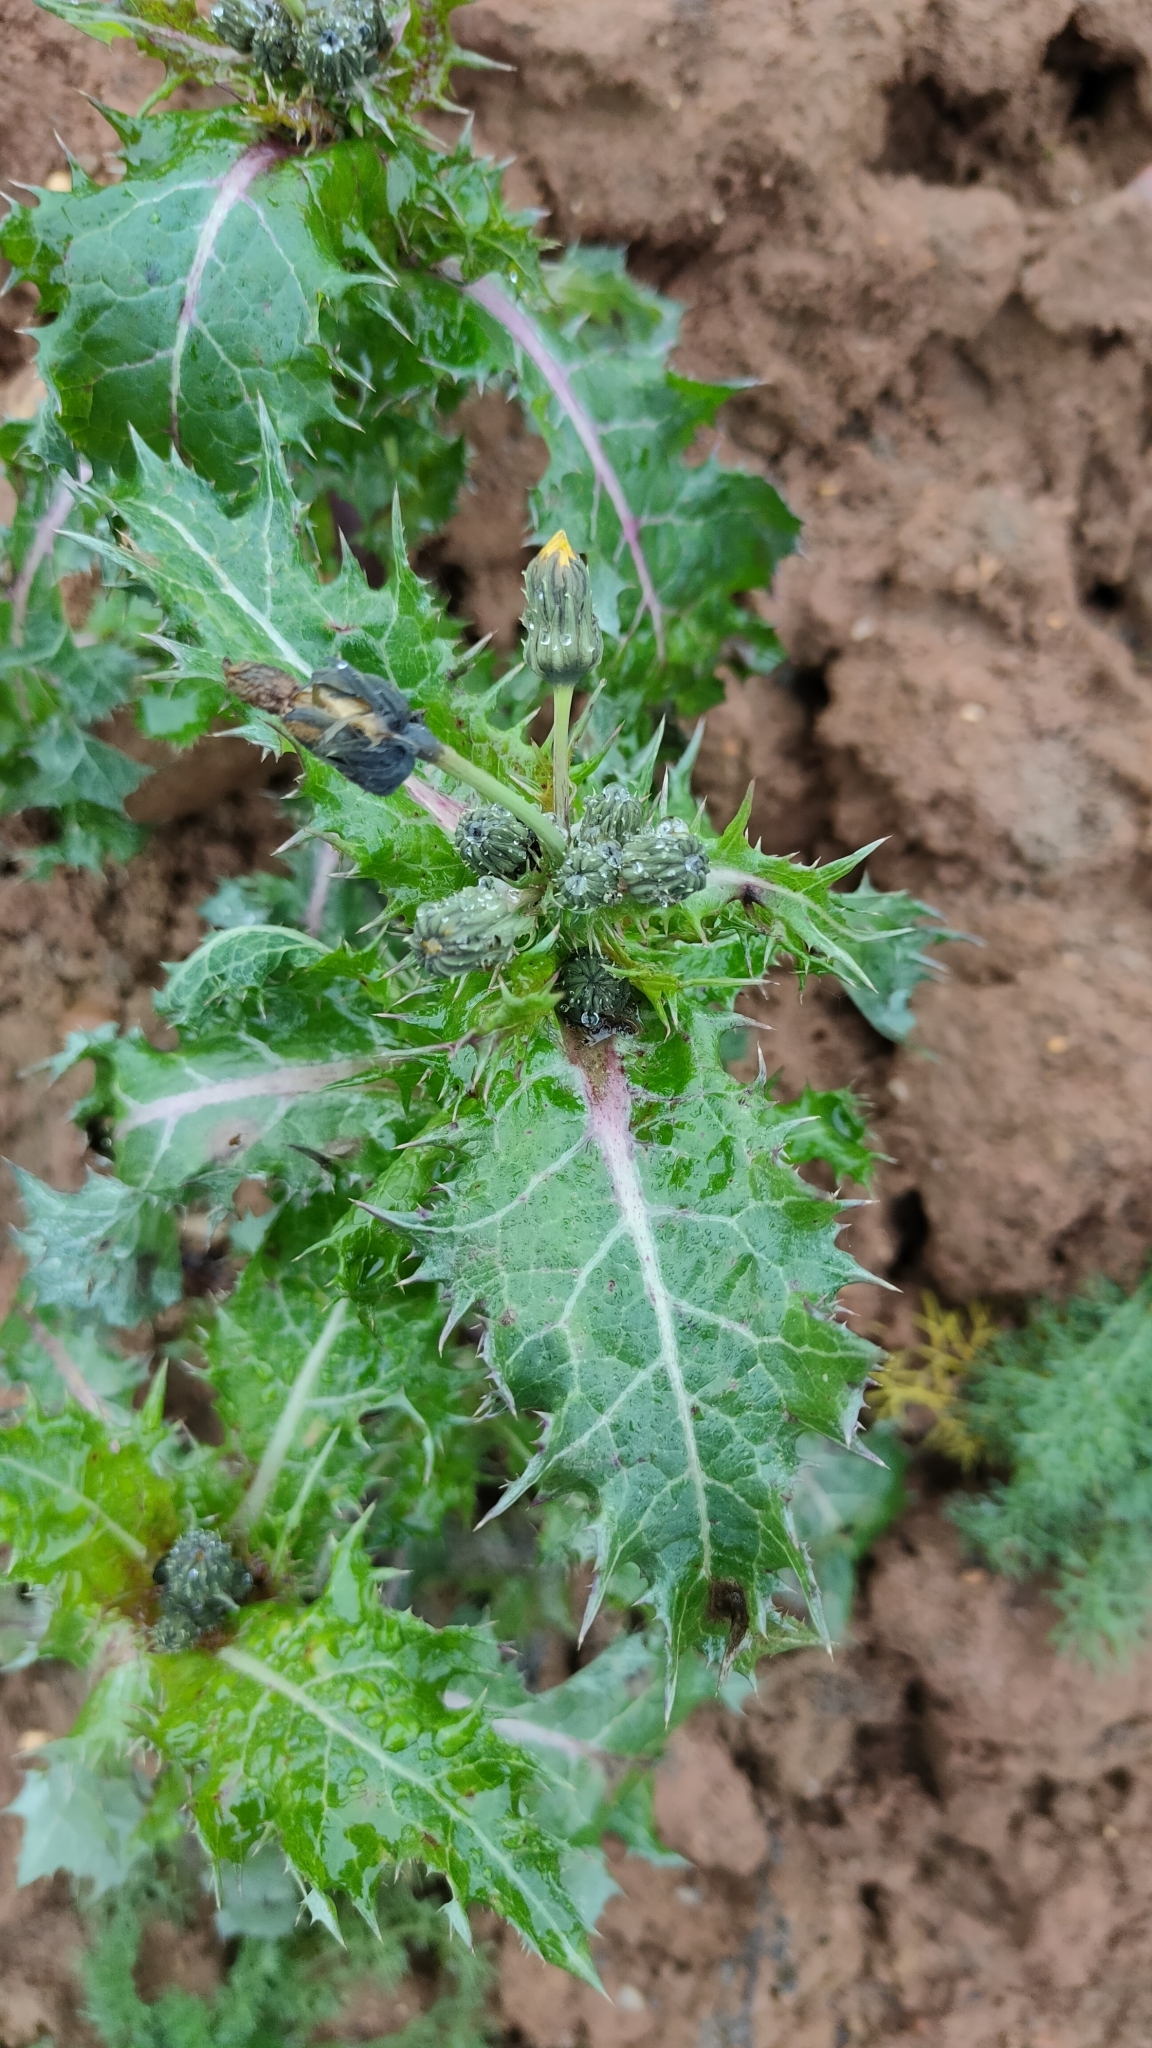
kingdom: Plantae
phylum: Tracheophyta
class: Magnoliopsida
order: Asterales
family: Asteraceae
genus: Sonchus
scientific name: Sonchus asper
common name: Prickly sow-thistle
